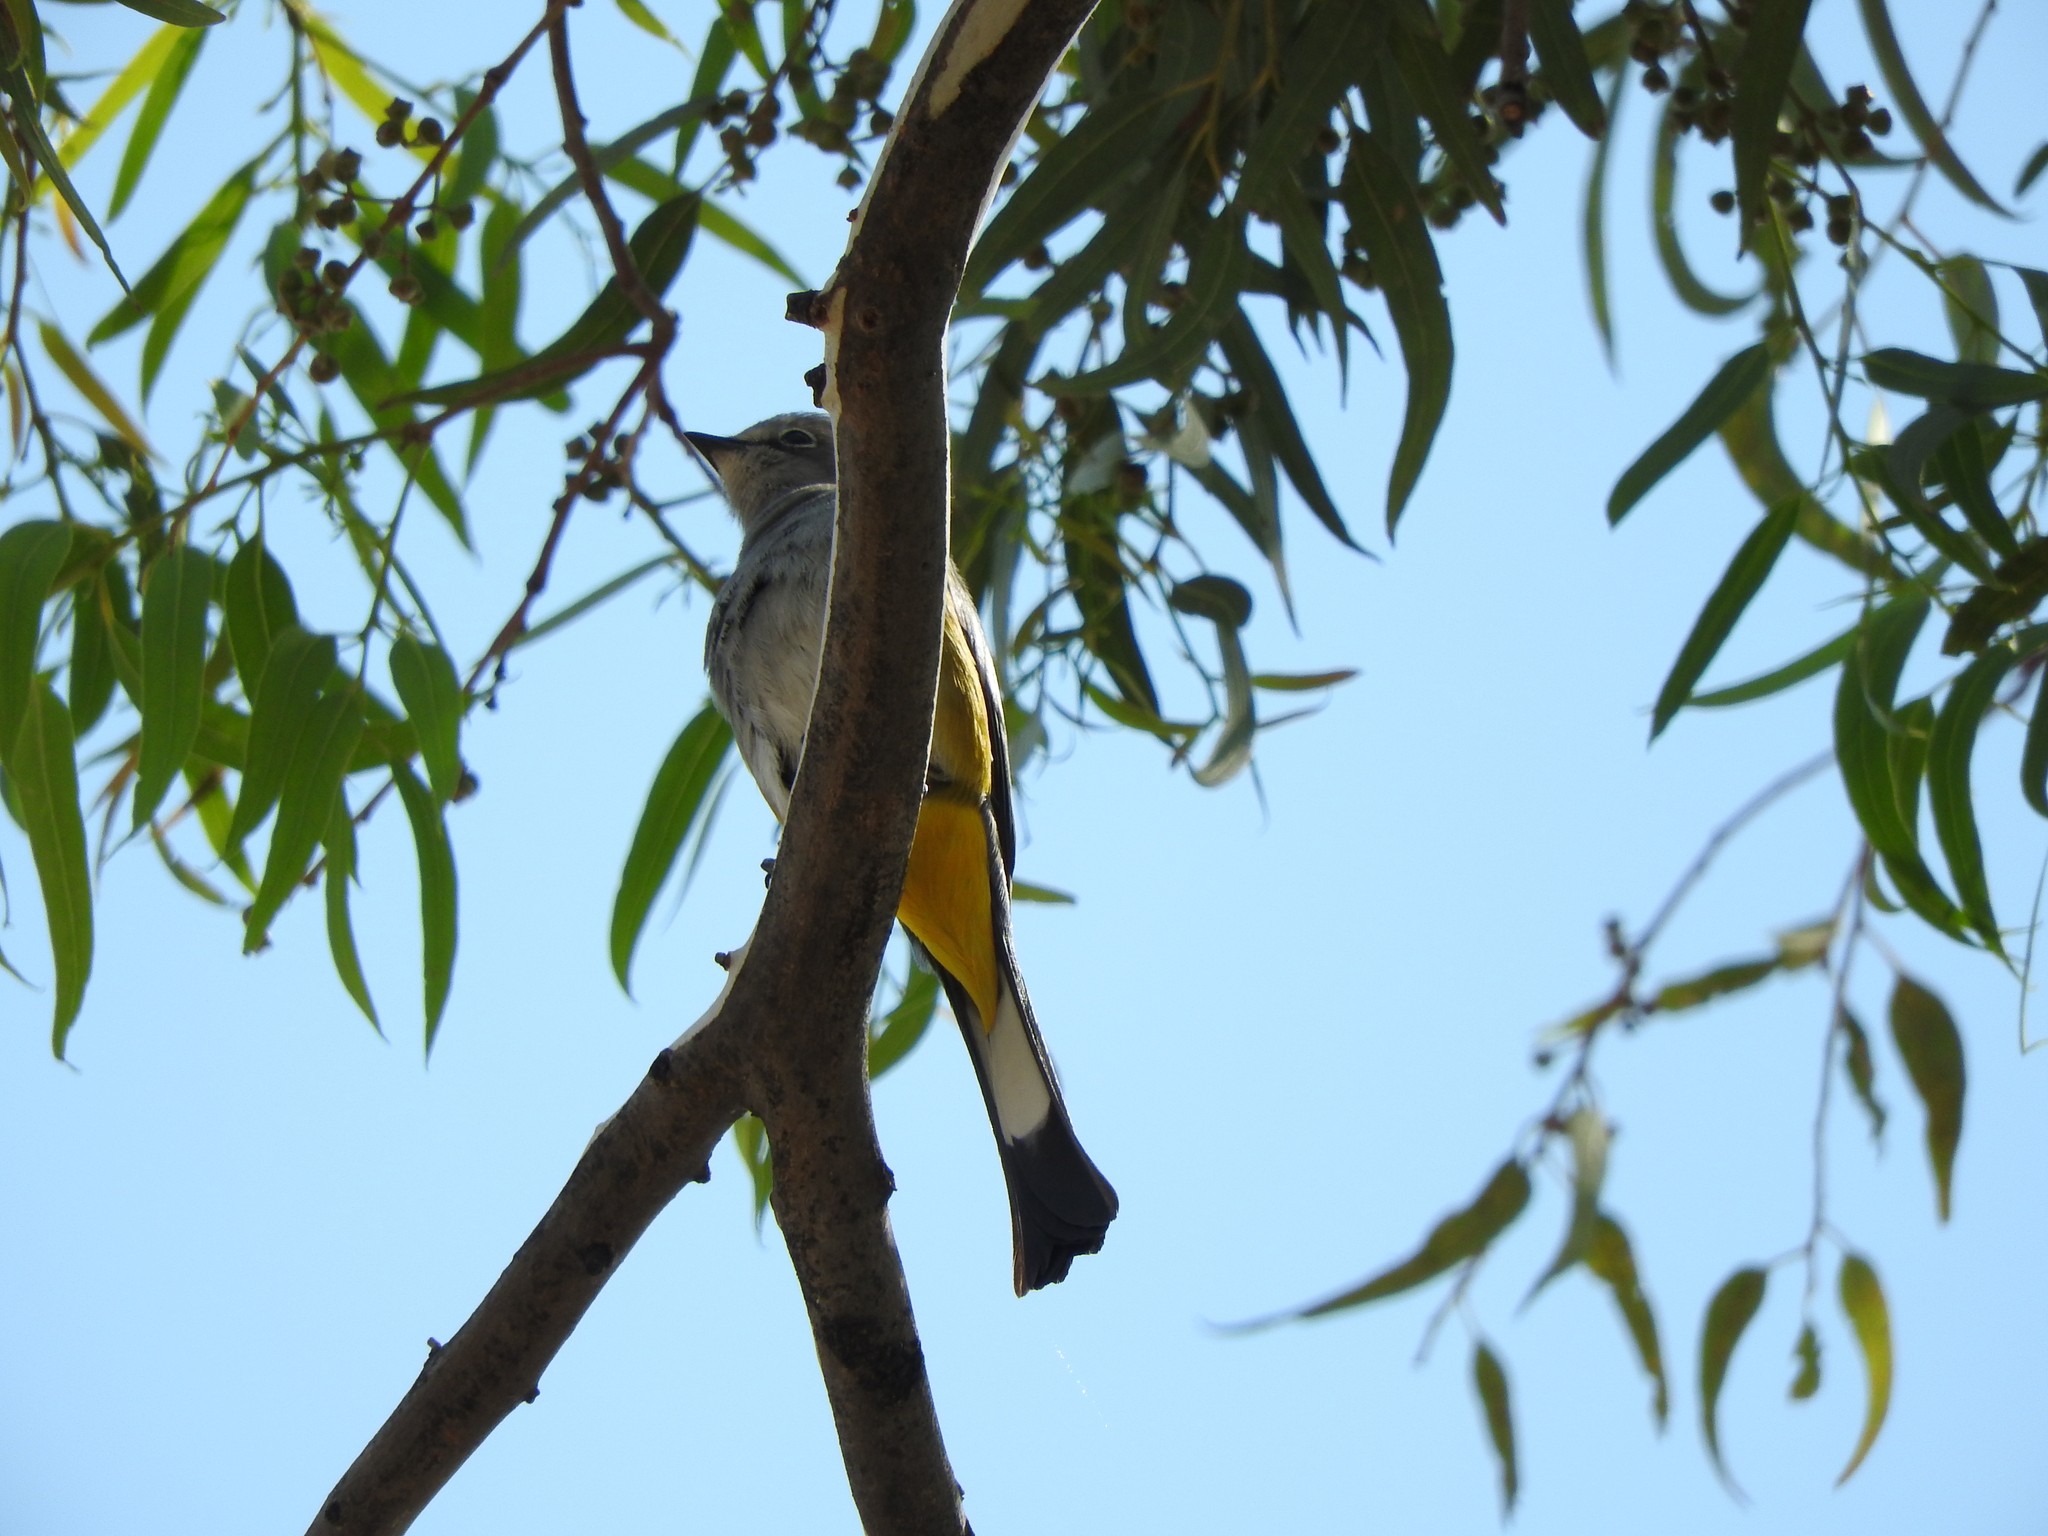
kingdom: Animalia
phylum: Chordata
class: Aves
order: Passeriformes
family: Ptilogonatidae
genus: Ptilogonys
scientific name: Ptilogonys cinereus
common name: Gray silky-flycatcher
